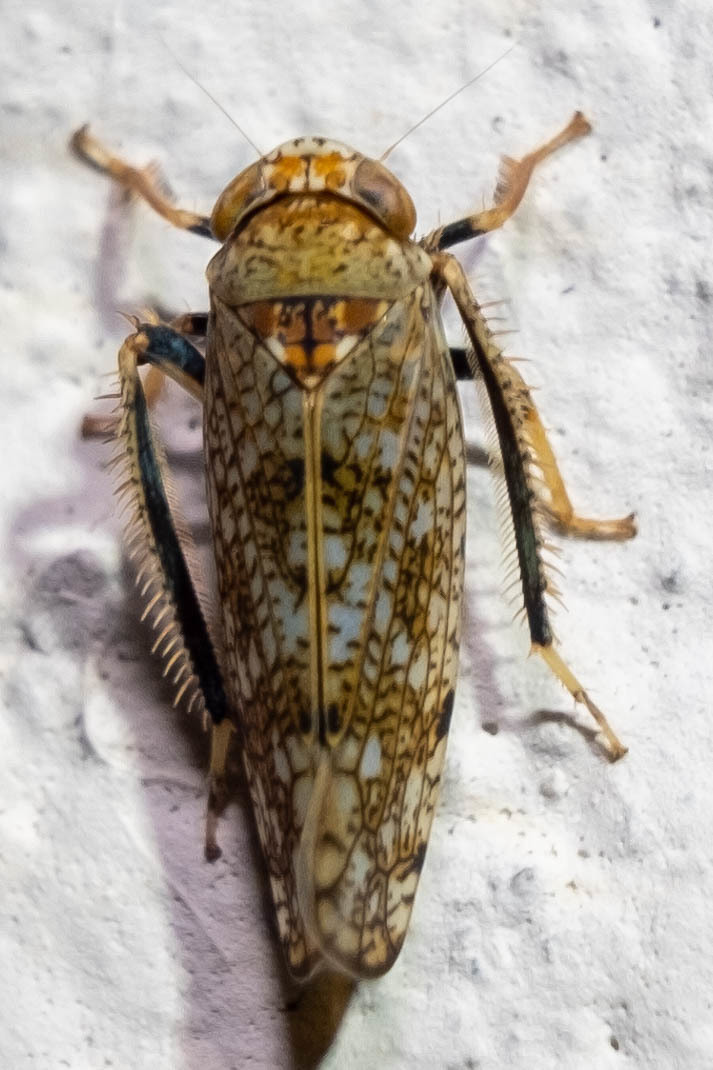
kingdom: Animalia
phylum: Arthropoda
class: Insecta
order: Hemiptera
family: Cicadellidae
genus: Orientus
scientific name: Orientus ishidae
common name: Japanese leafhopper
